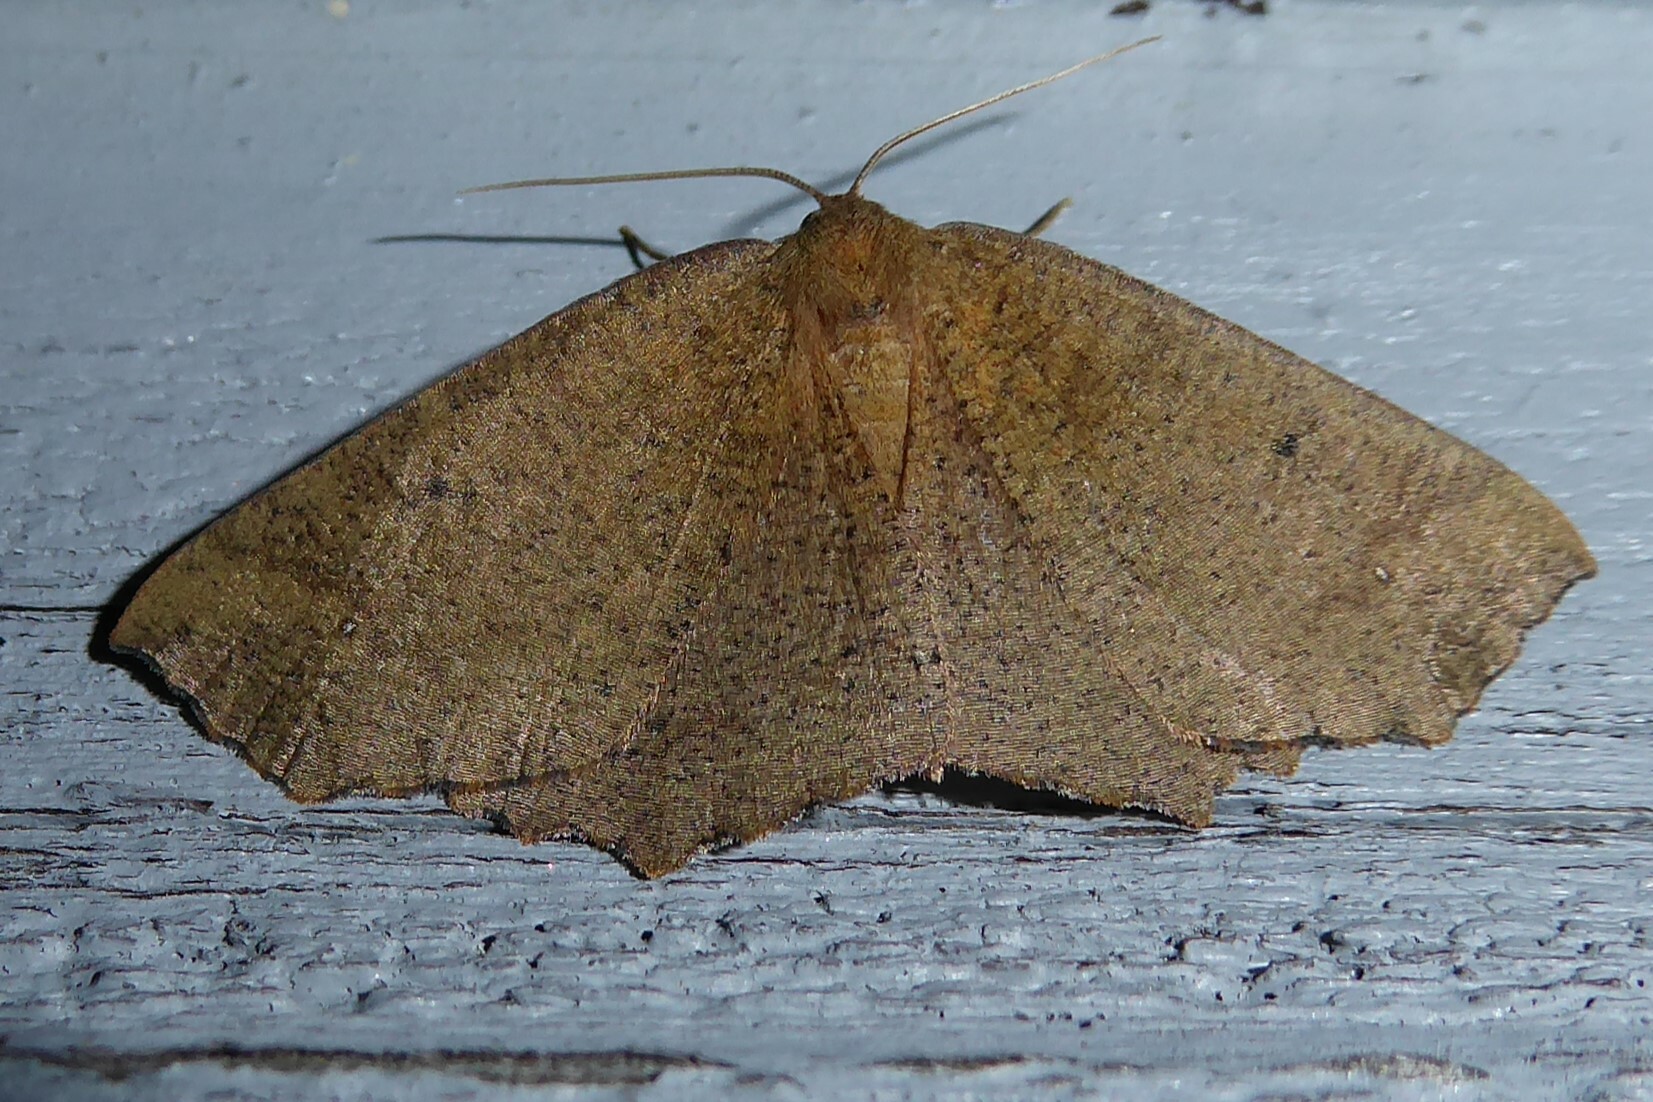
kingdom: Animalia
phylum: Arthropoda
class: Insecta
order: Lepidoptera
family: Geometridae
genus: Xyridacma
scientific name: Xyridacma ustaria
